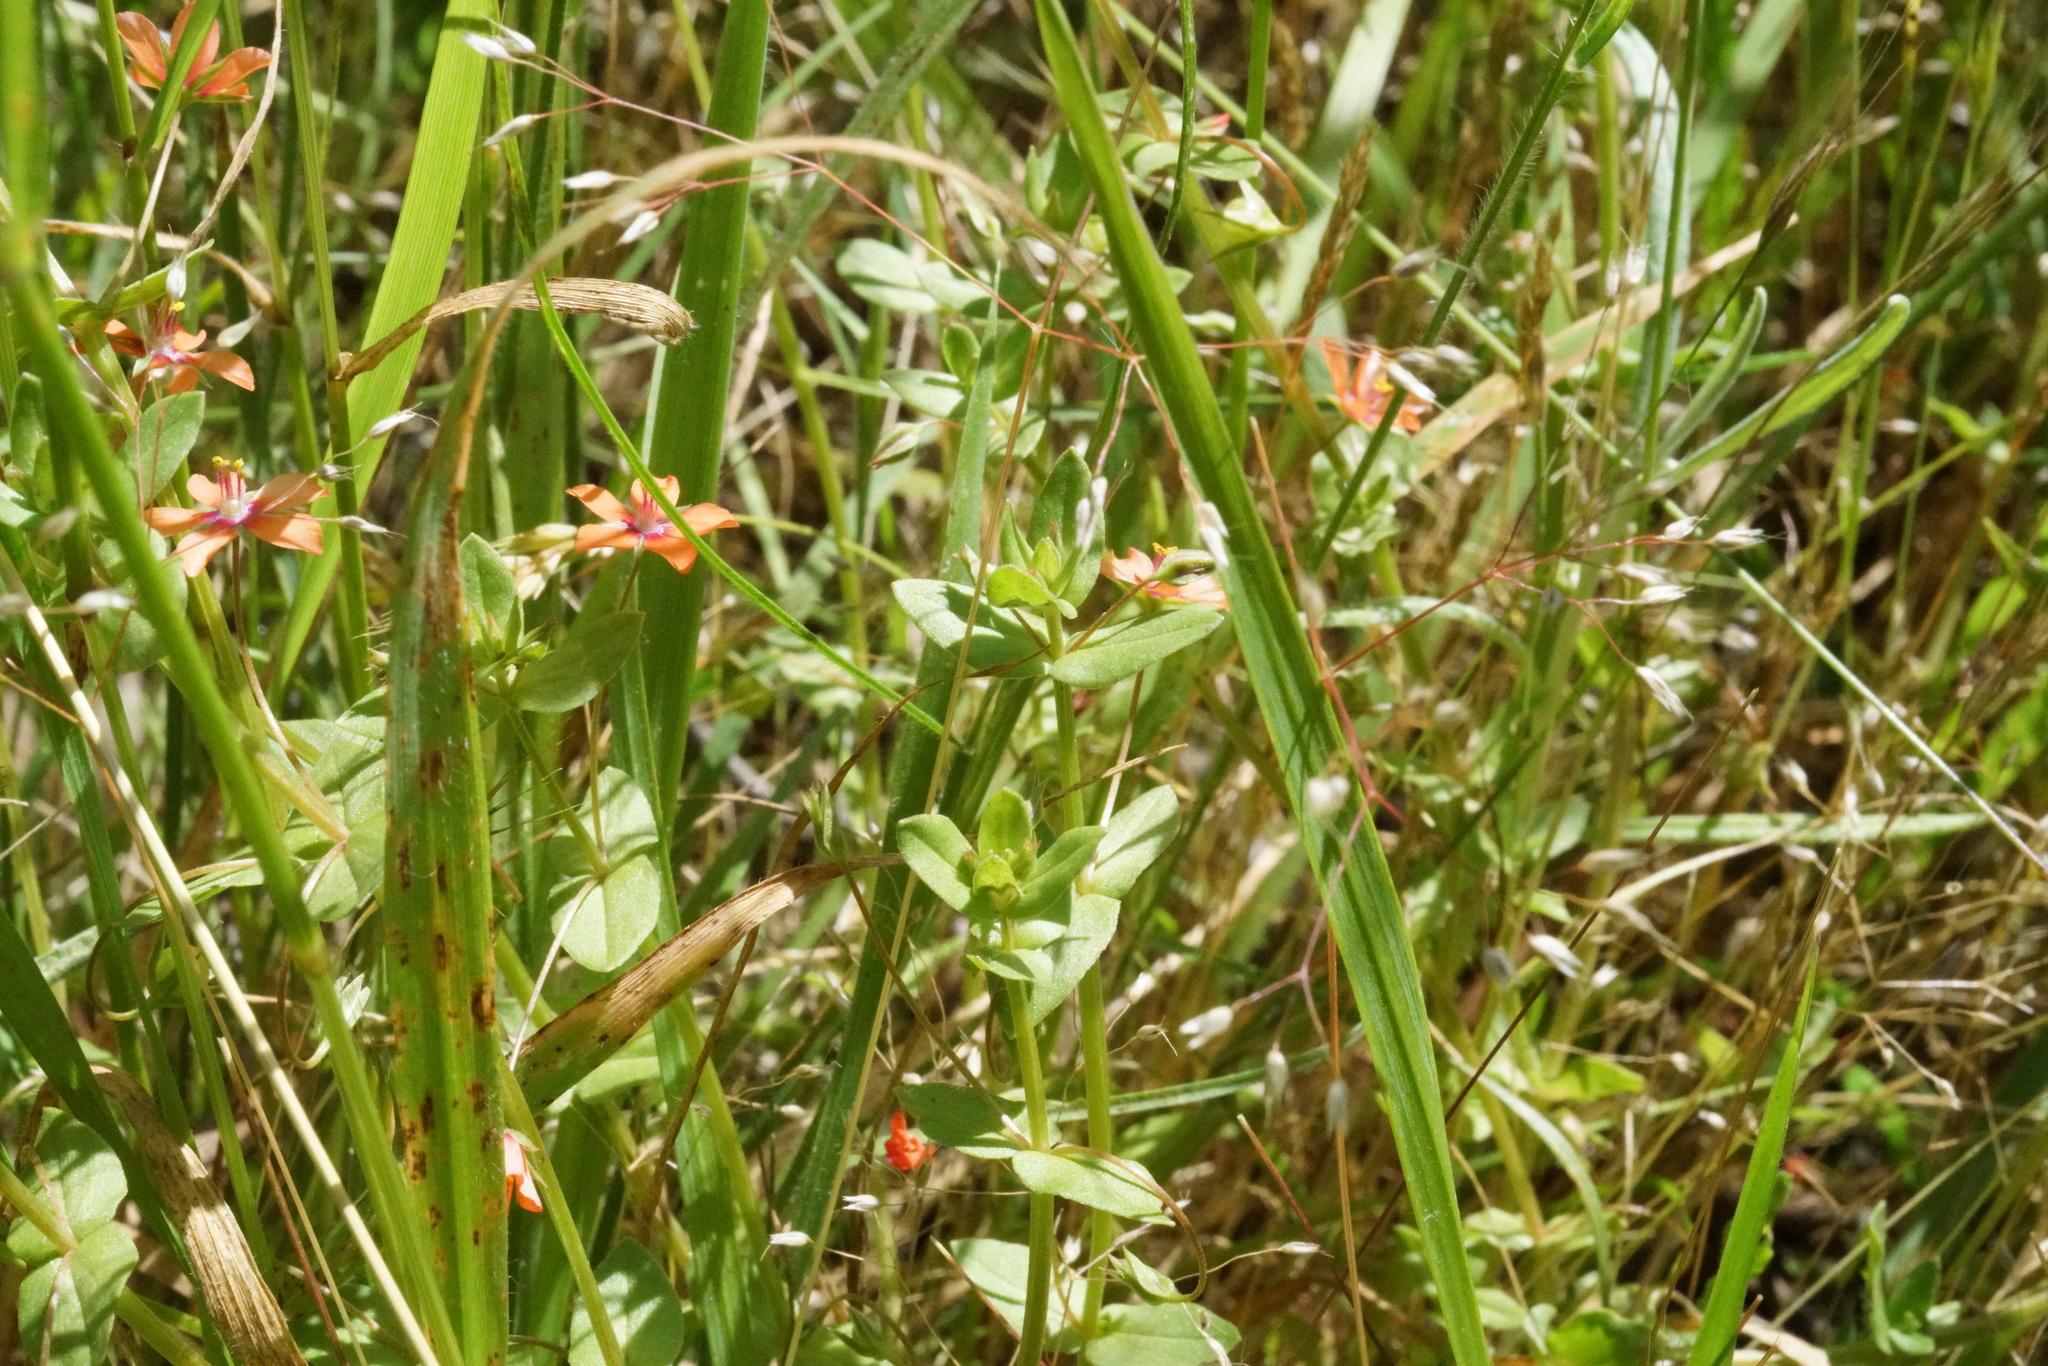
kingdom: Plantae
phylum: Tracheophyta
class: Magnoliopsida
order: Ericales
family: Primulaceae
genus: Lysimachia
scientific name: Lysimachia arvensis
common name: Scarlet pimpernel
